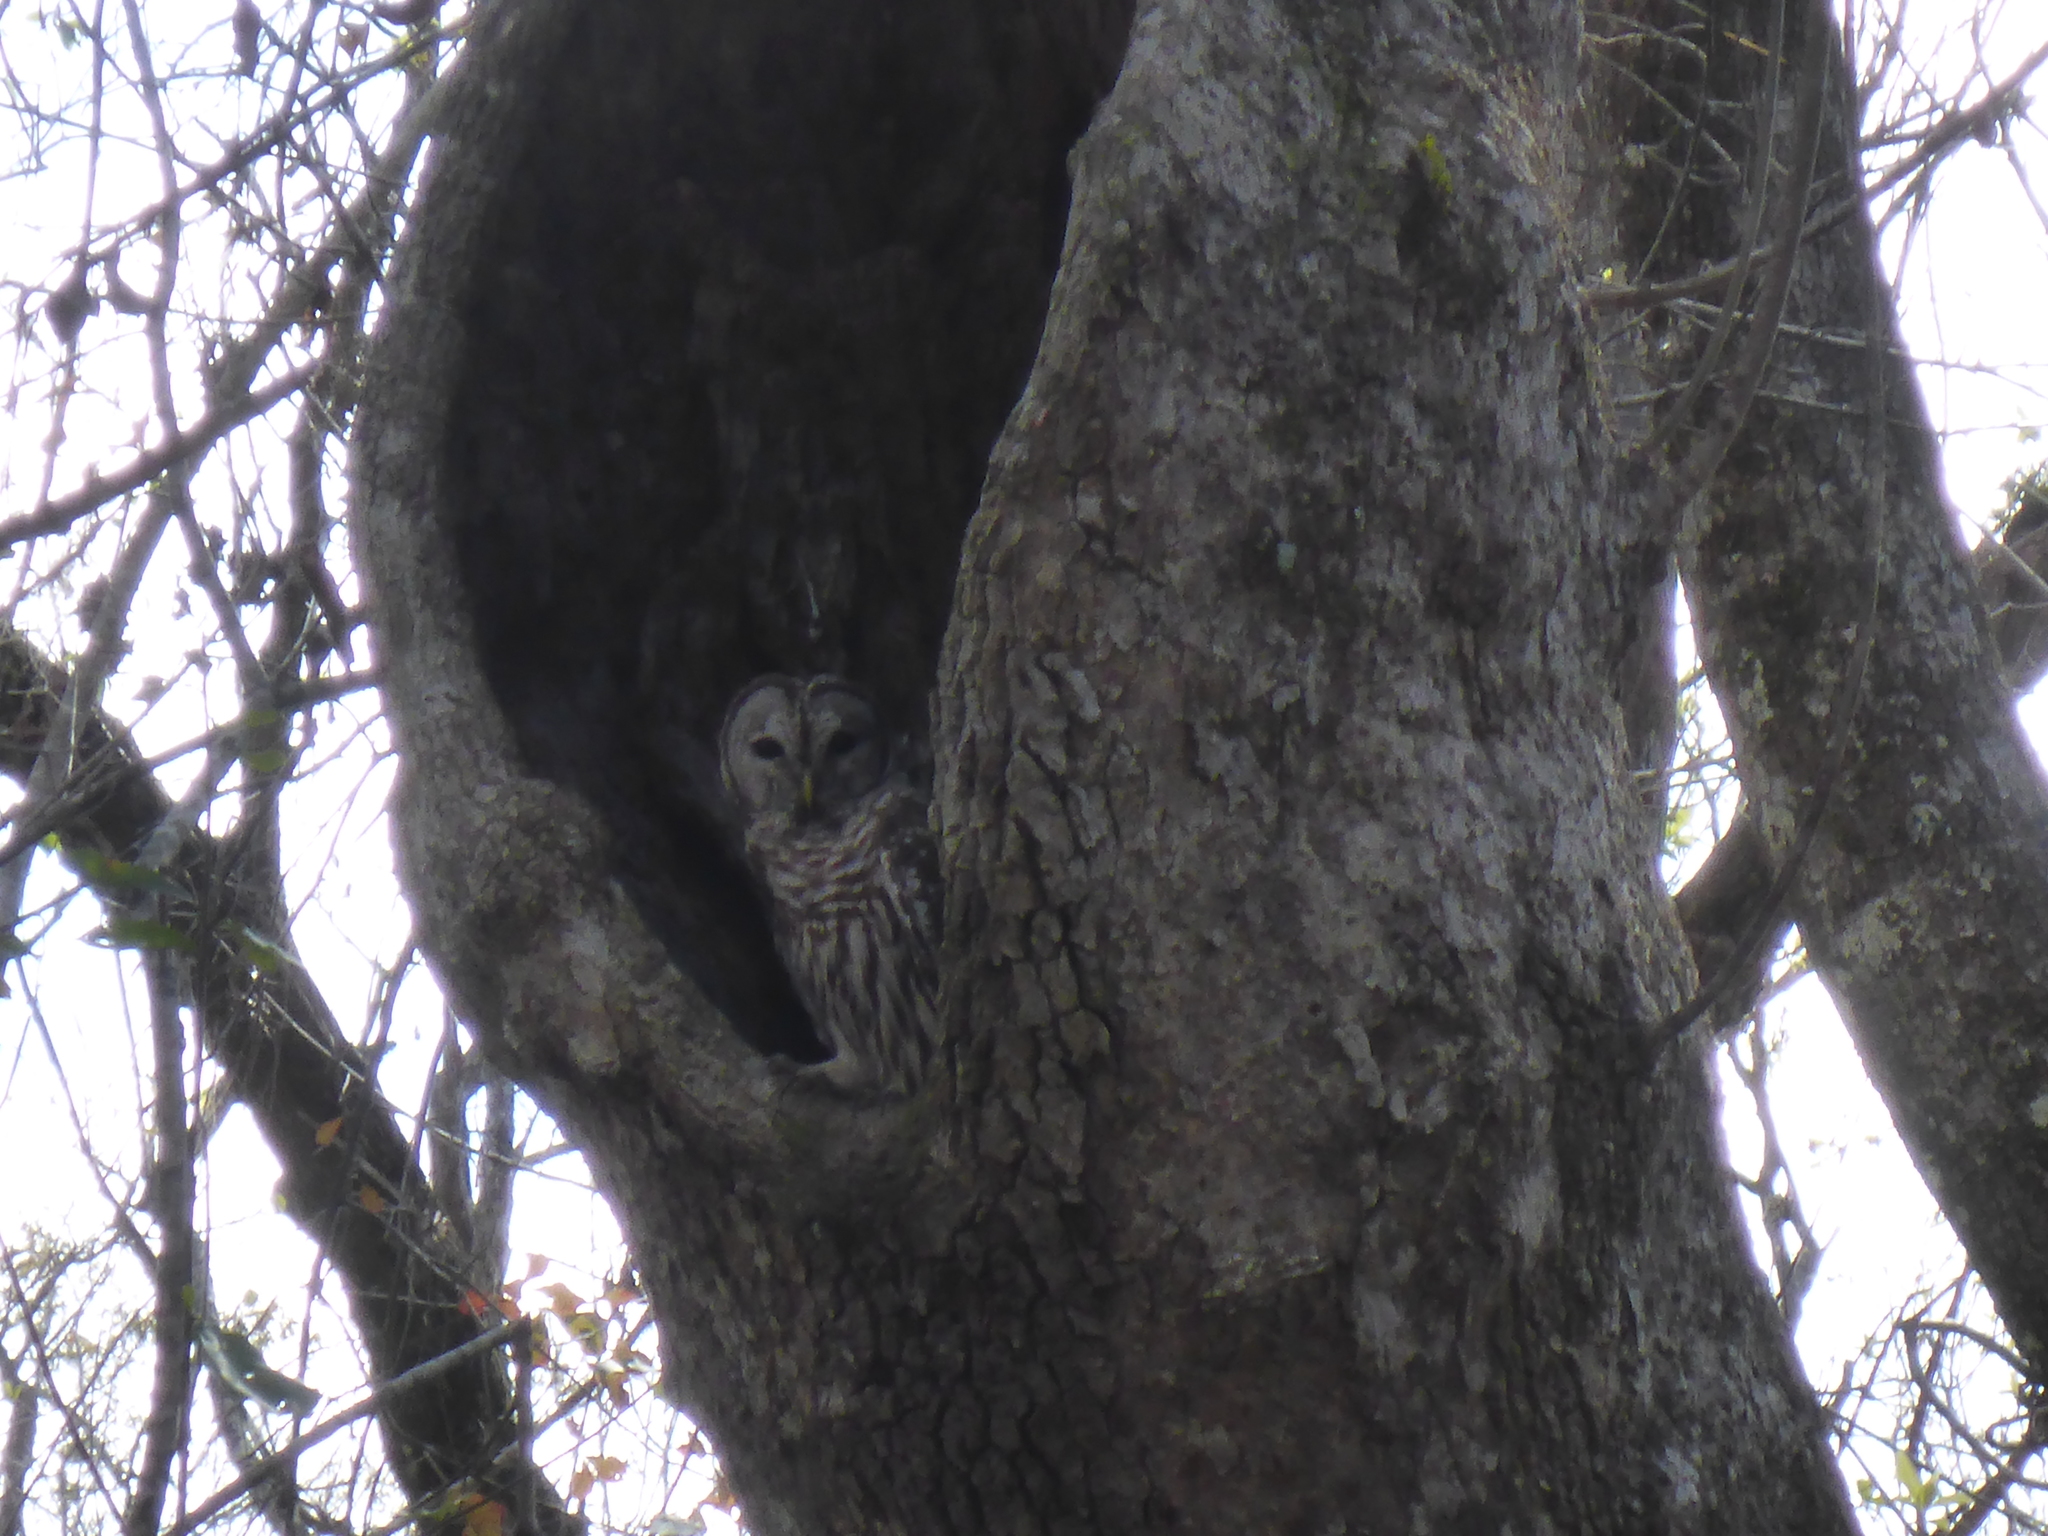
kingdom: Animalia
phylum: Chordata
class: Aves
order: Strigiformes
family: Strigidae
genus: Strix
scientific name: Strix varia
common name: Barred owl
